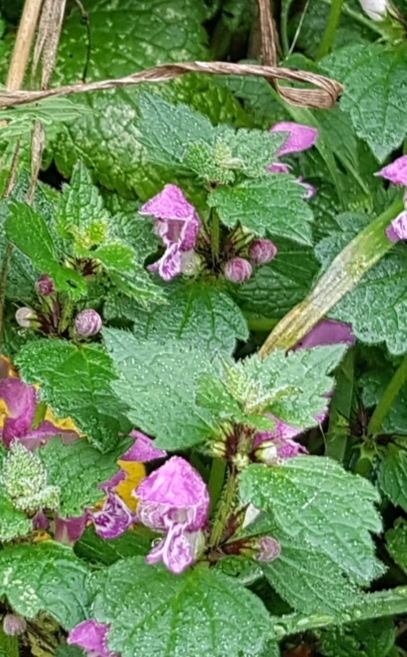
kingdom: Plantae
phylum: Tracheophyta
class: Magnoliopsida
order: Lamiales
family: Lamiaceae
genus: Lamium
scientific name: Lamium maculatum
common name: Spotted dead-nettle
